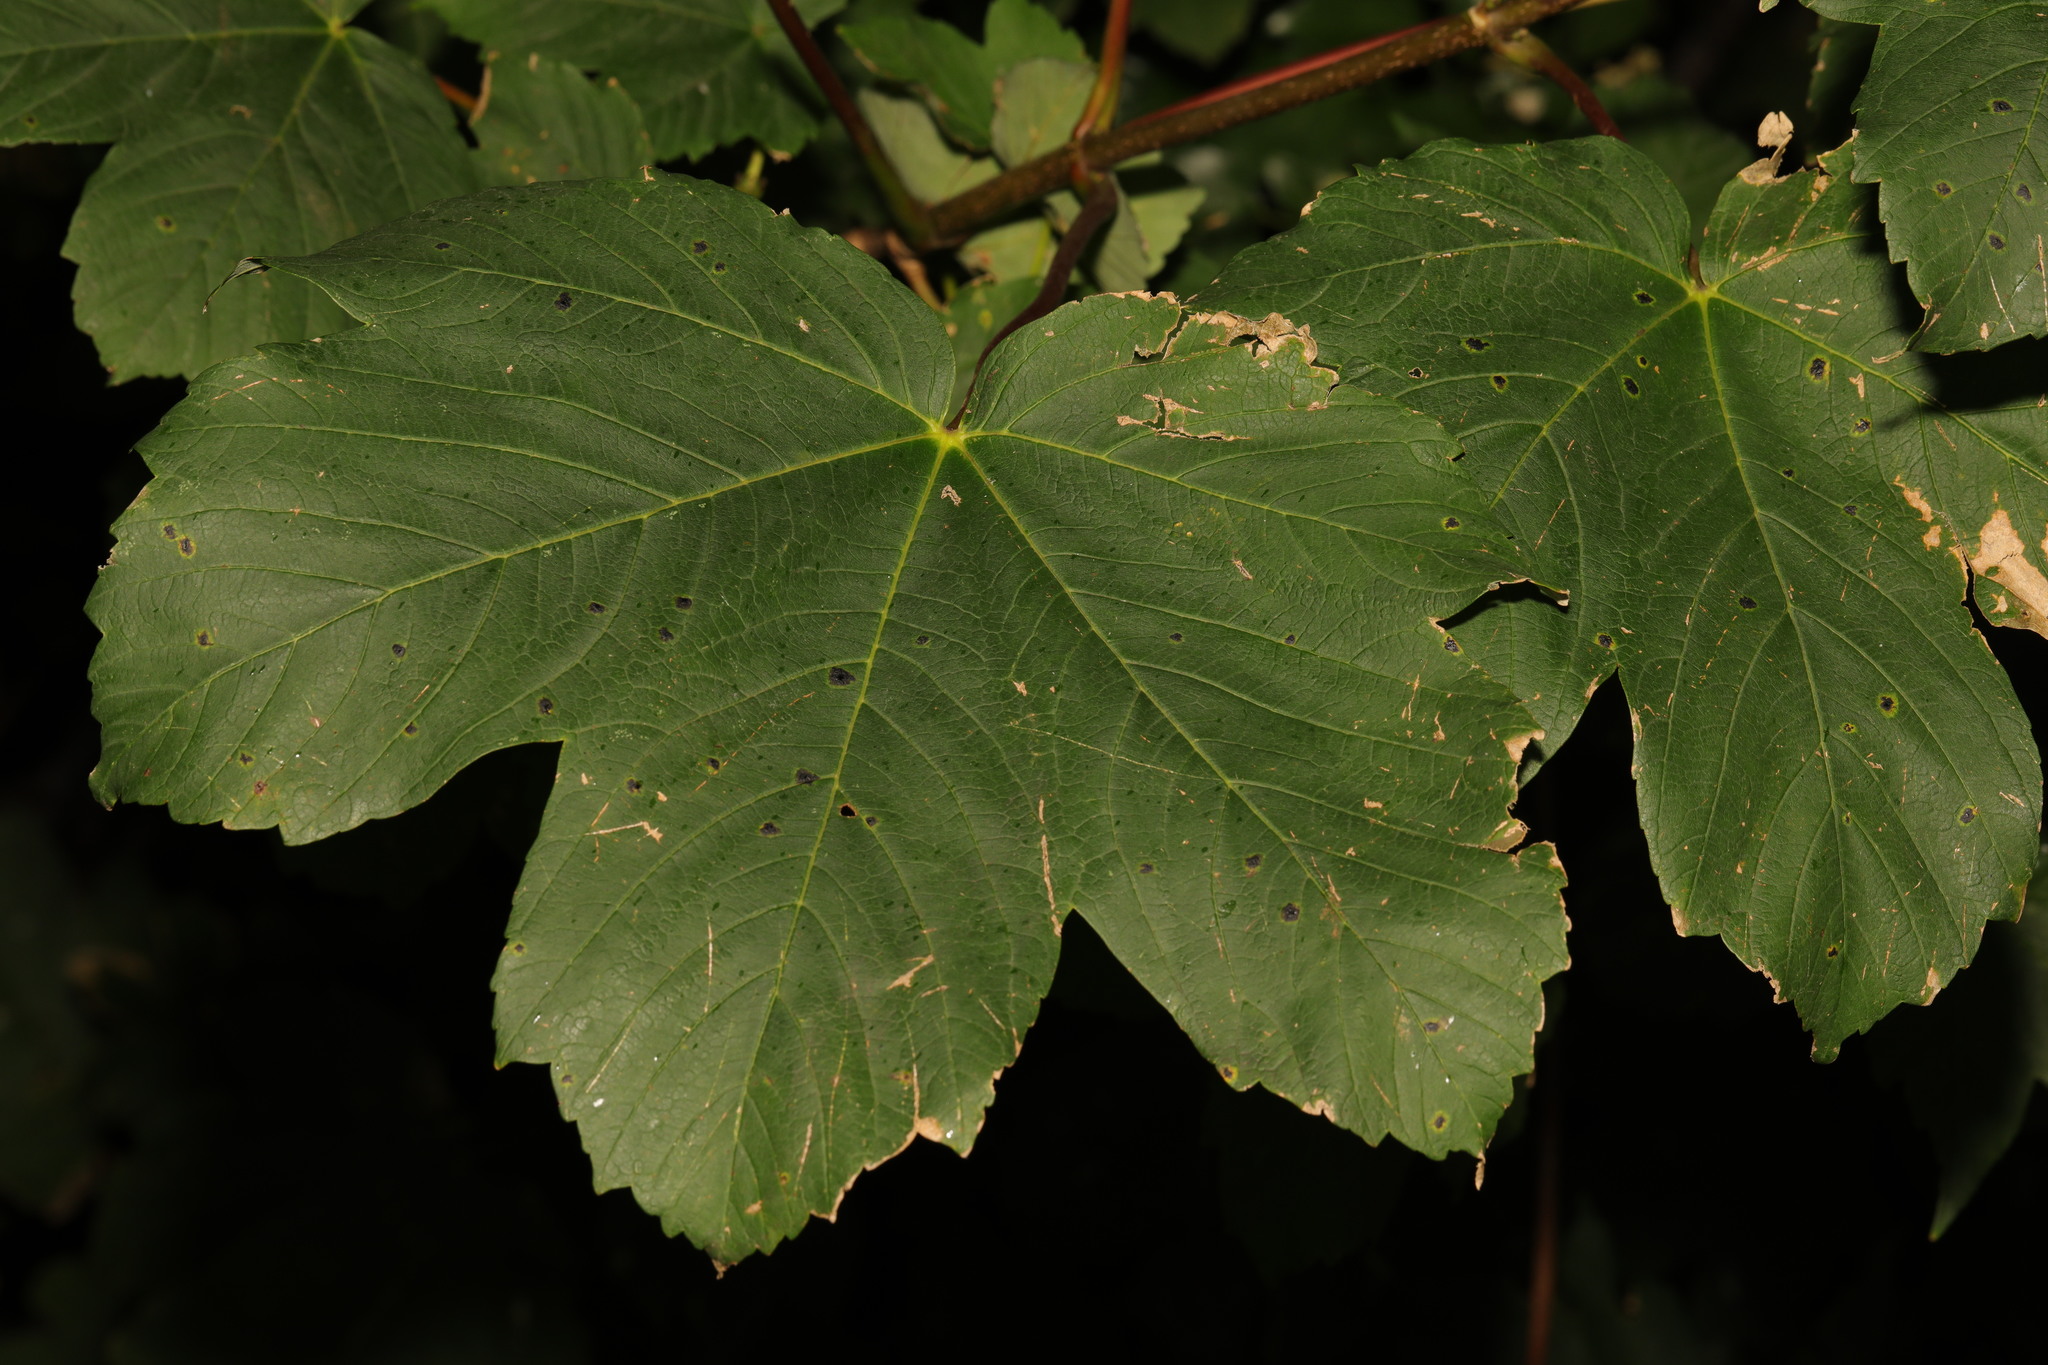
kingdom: Plantae
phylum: Tracheophyta
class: Magnoliopsida
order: Sapindales
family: Sapindaceae
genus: Acer
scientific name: Acer pseudoplatanus
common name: Sycamore
